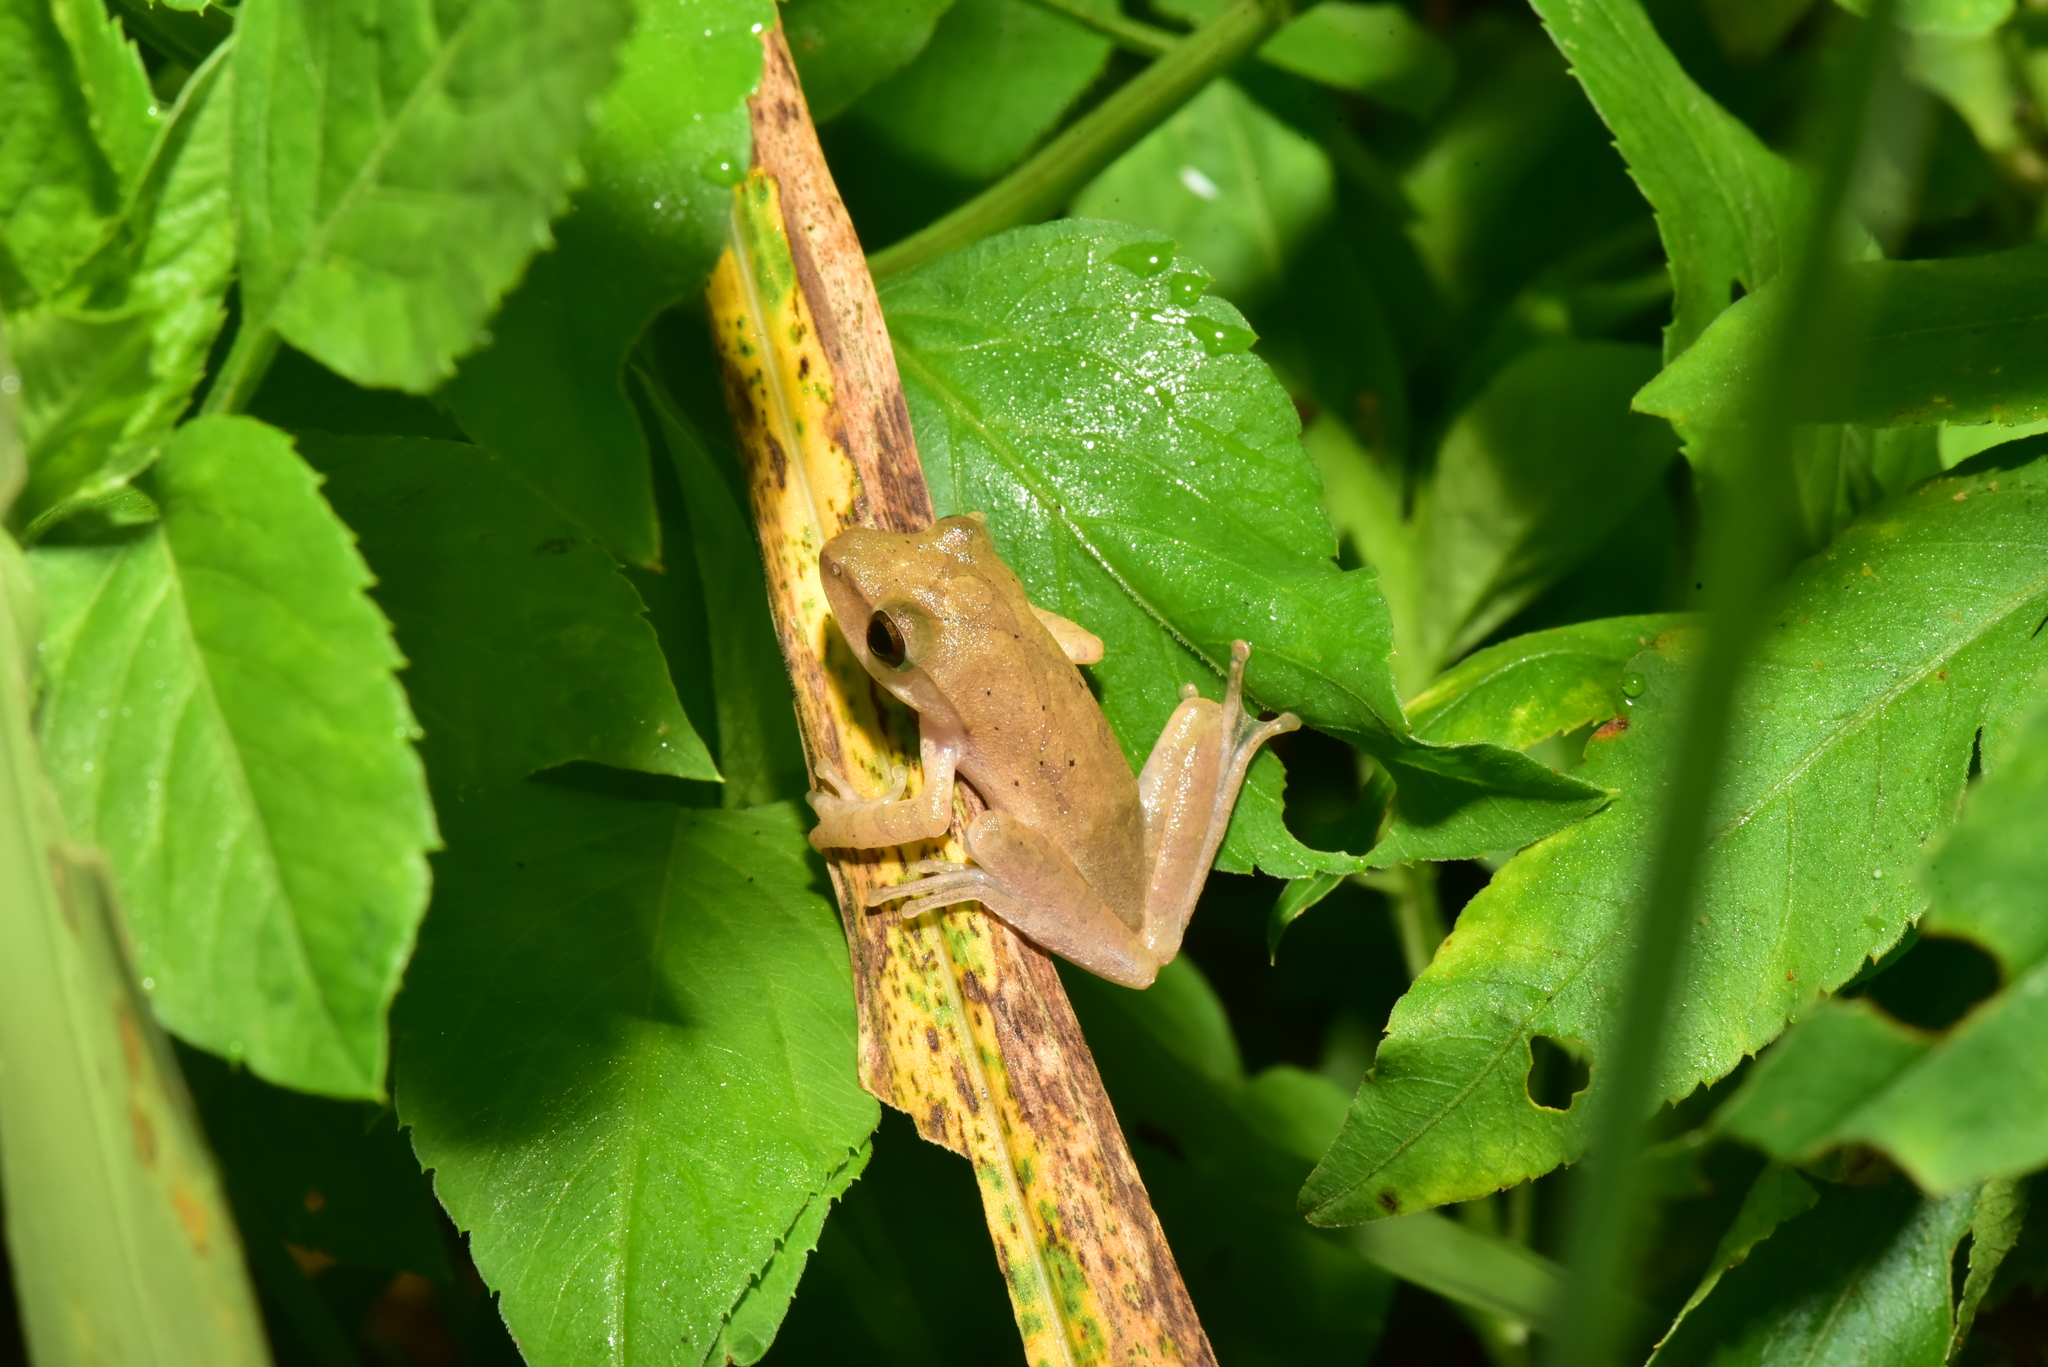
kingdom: Animalia
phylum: Chordata
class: Amphibia
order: Anura
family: Rhacophoridae
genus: Polypedates
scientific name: Polypedates megacephalus
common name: Hong kong whipping frog
